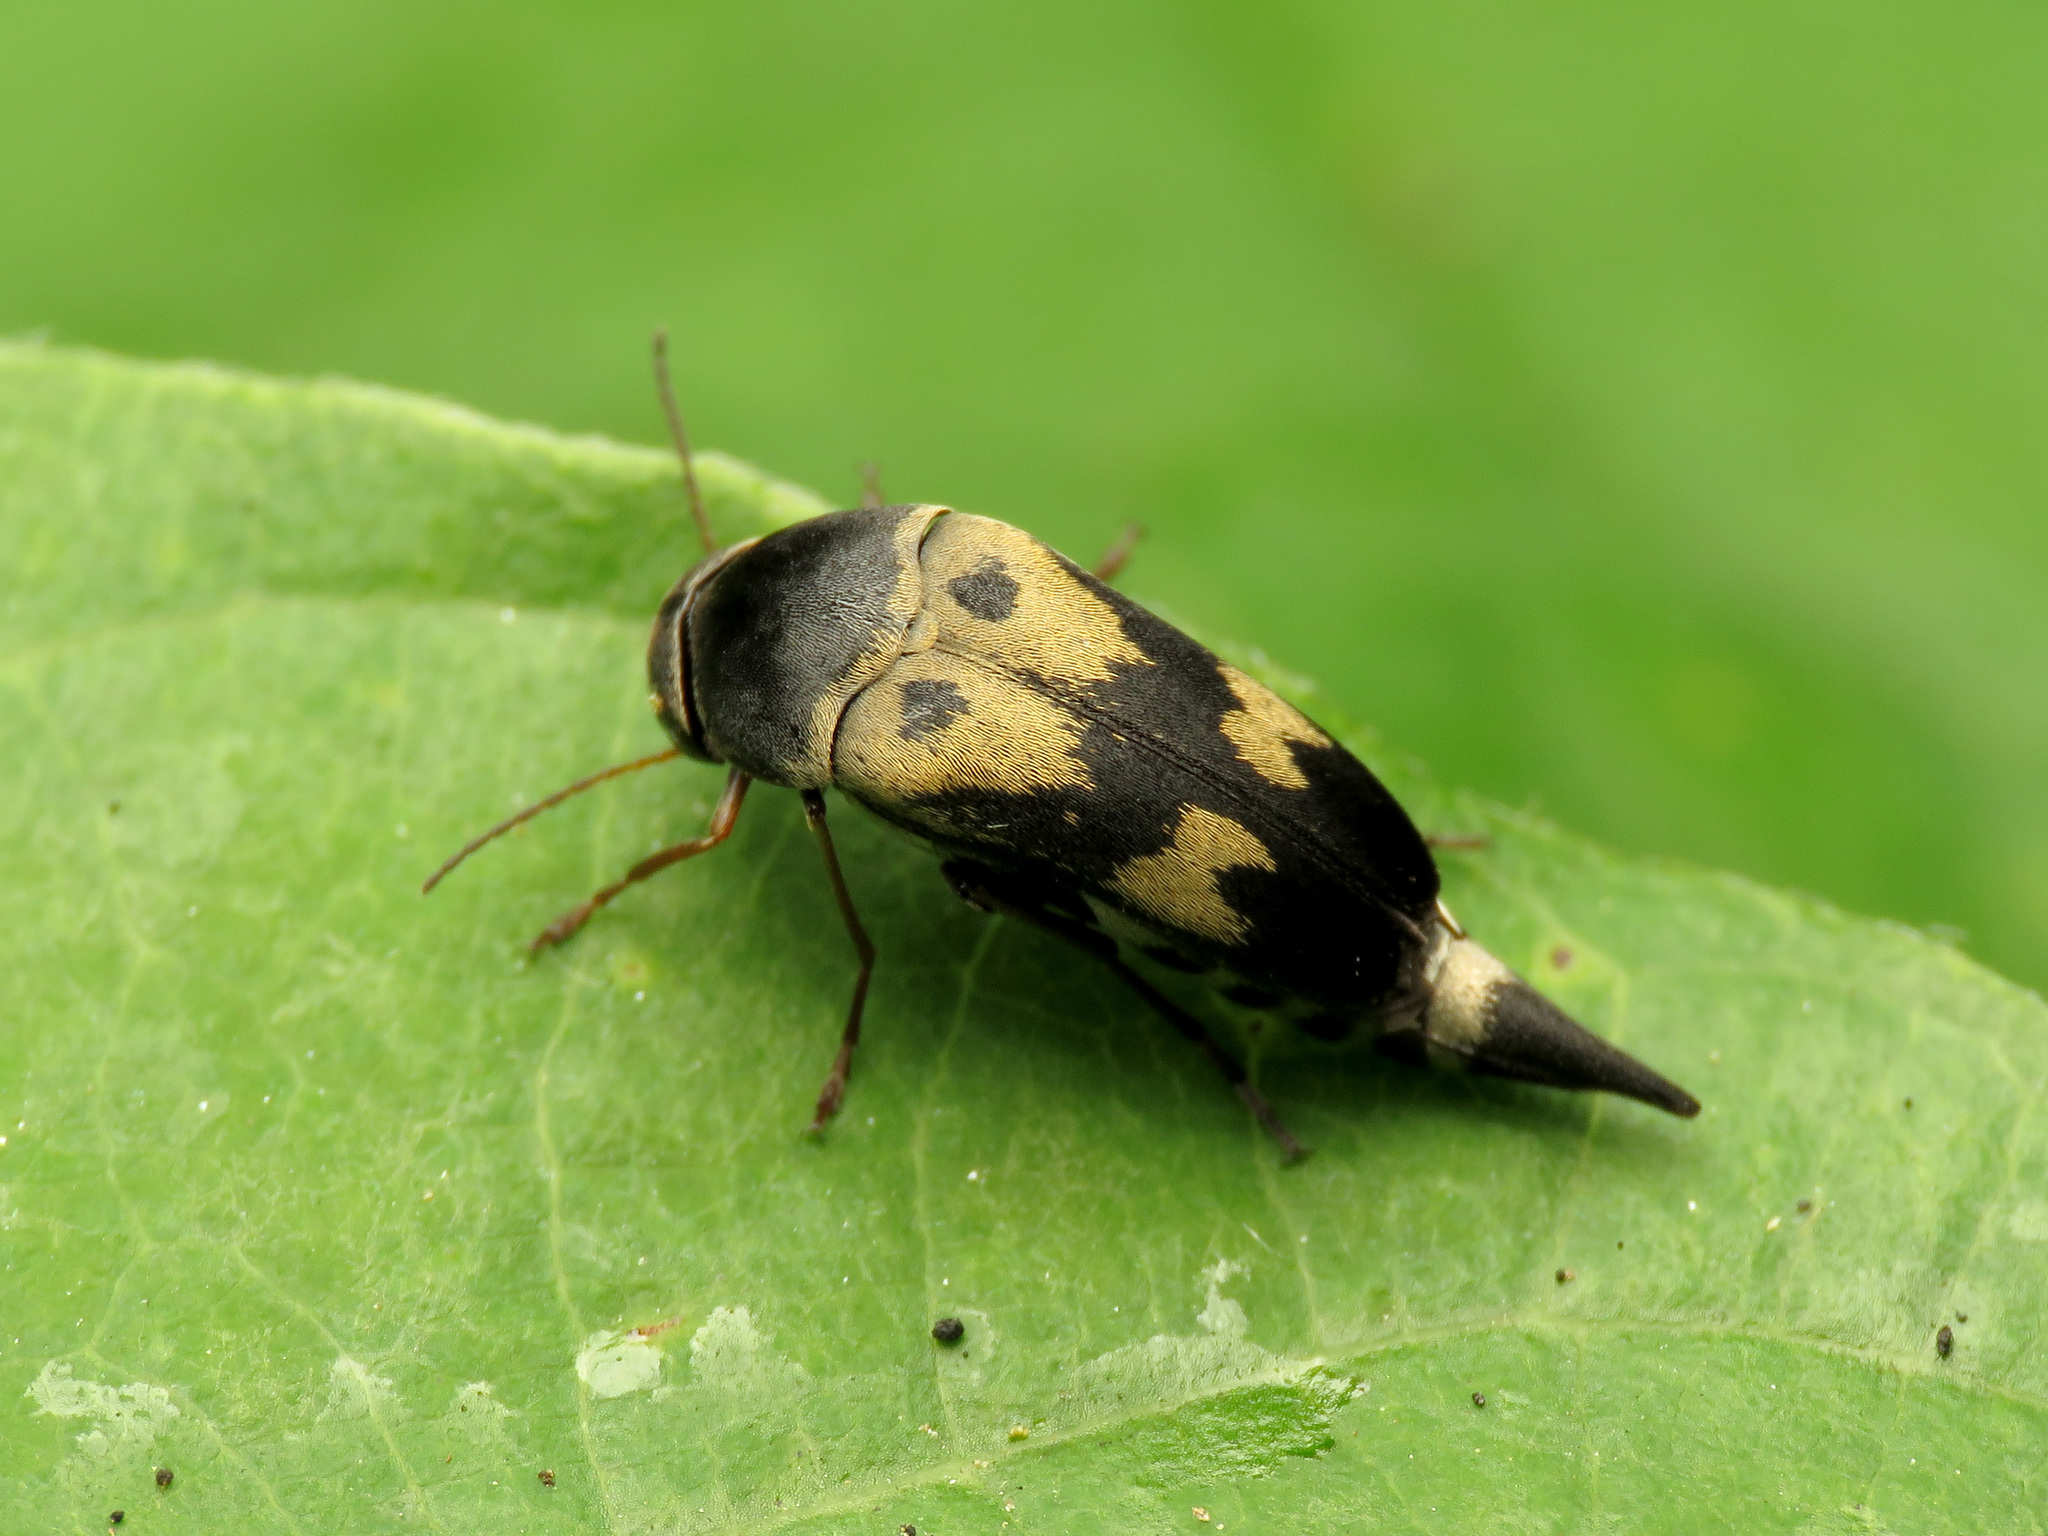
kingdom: Animalia
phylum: Arthropoda
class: Insecta
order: Coleoptera
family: Mordellidae
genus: Glipa
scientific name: Glipa oculata
